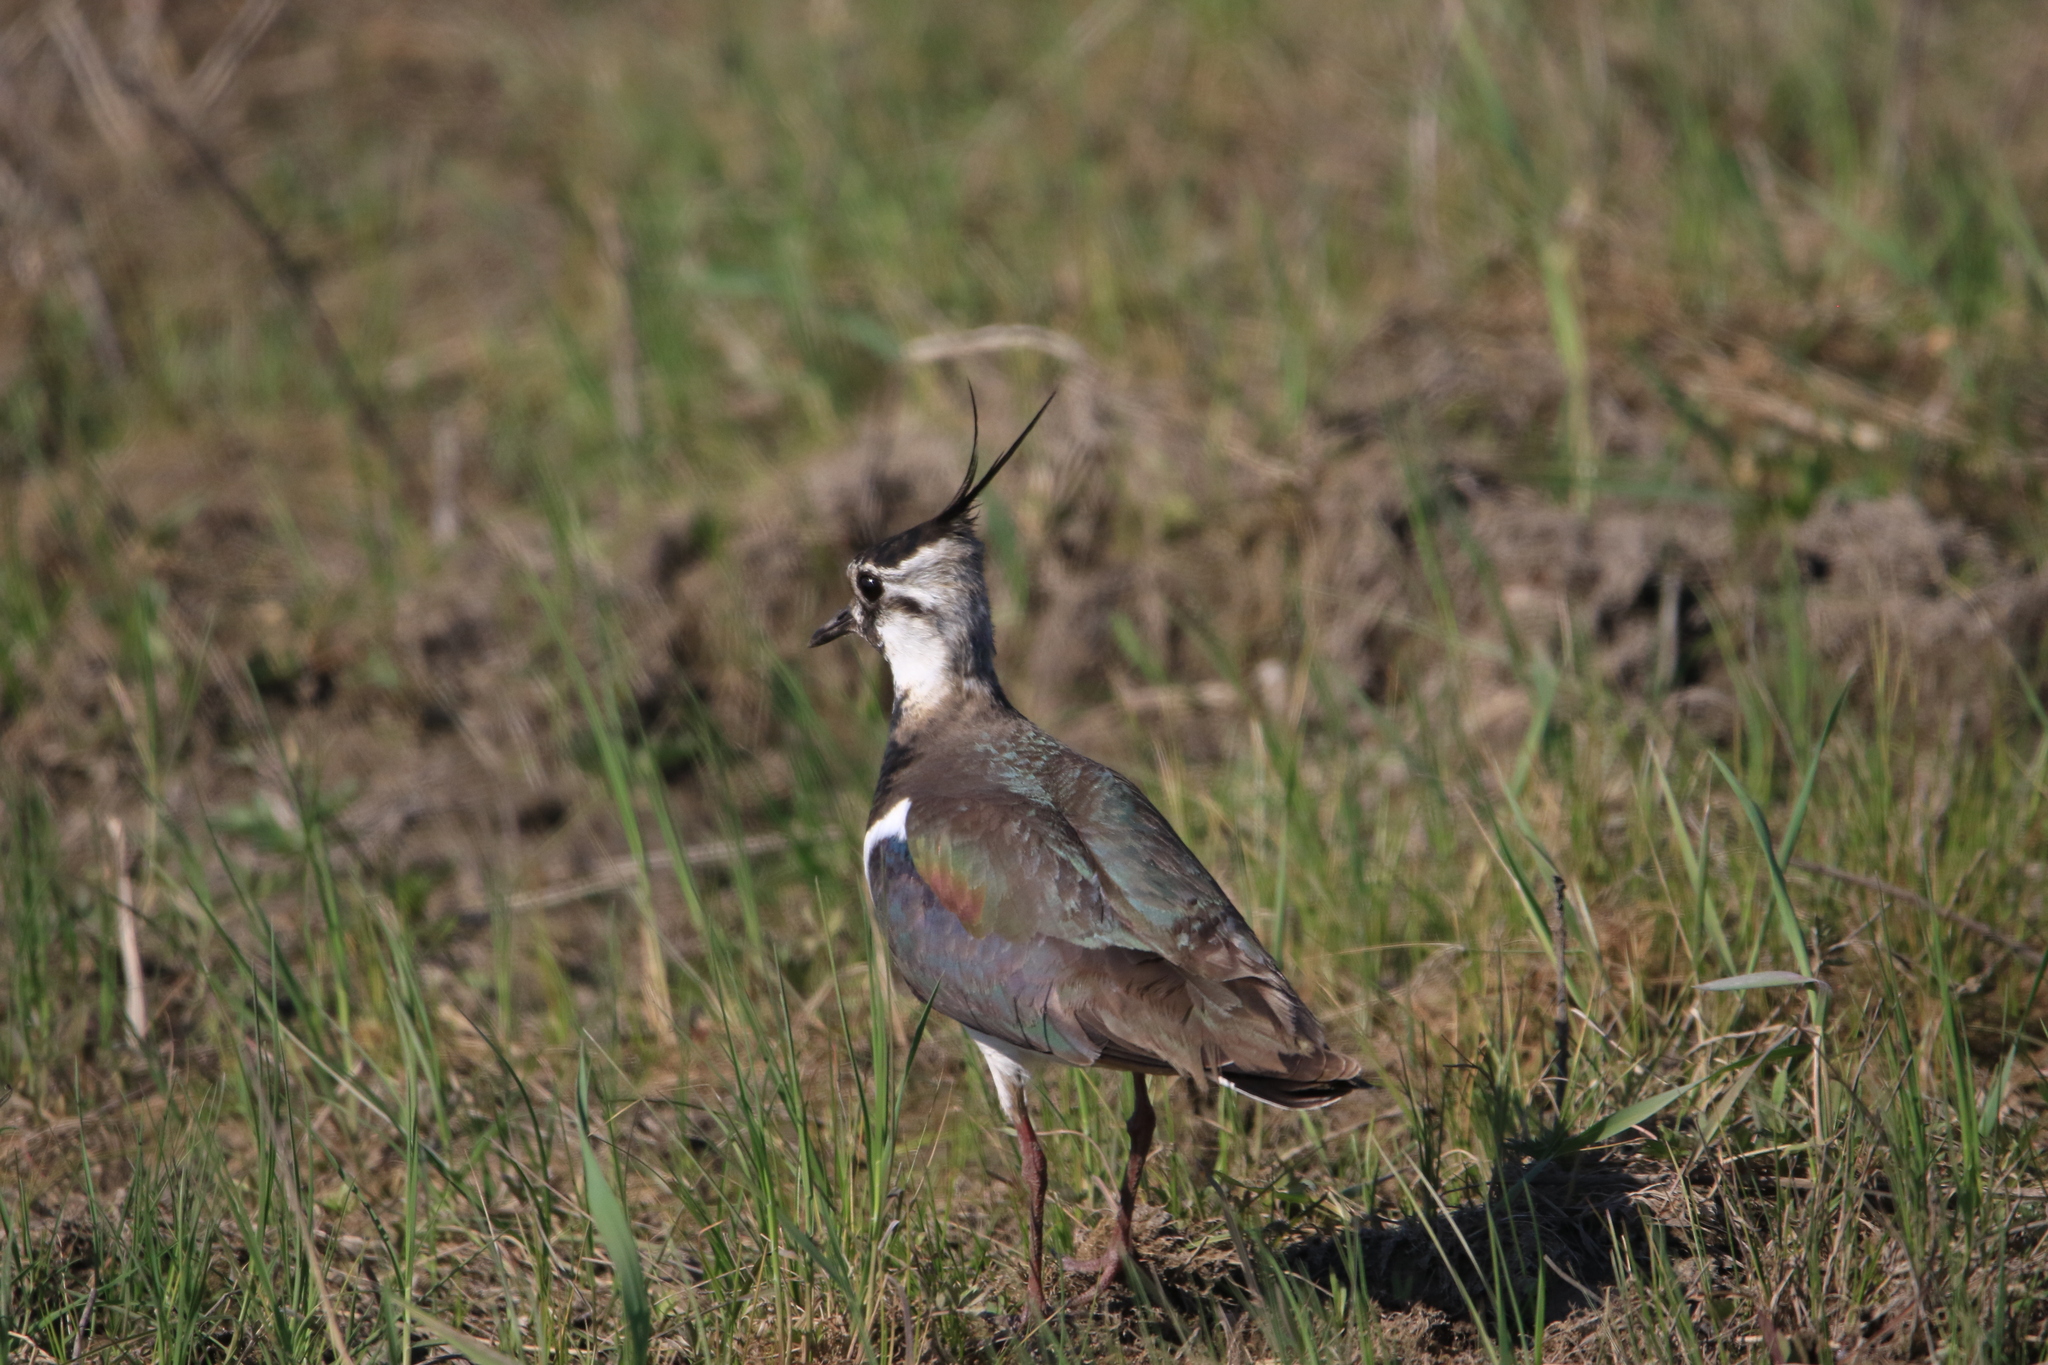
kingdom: Animalia
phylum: Chordata
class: Aves
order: Charadriiformes
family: Charadriidae
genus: Vanellus
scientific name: Vanellus vanellus
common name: Northern lapwing
